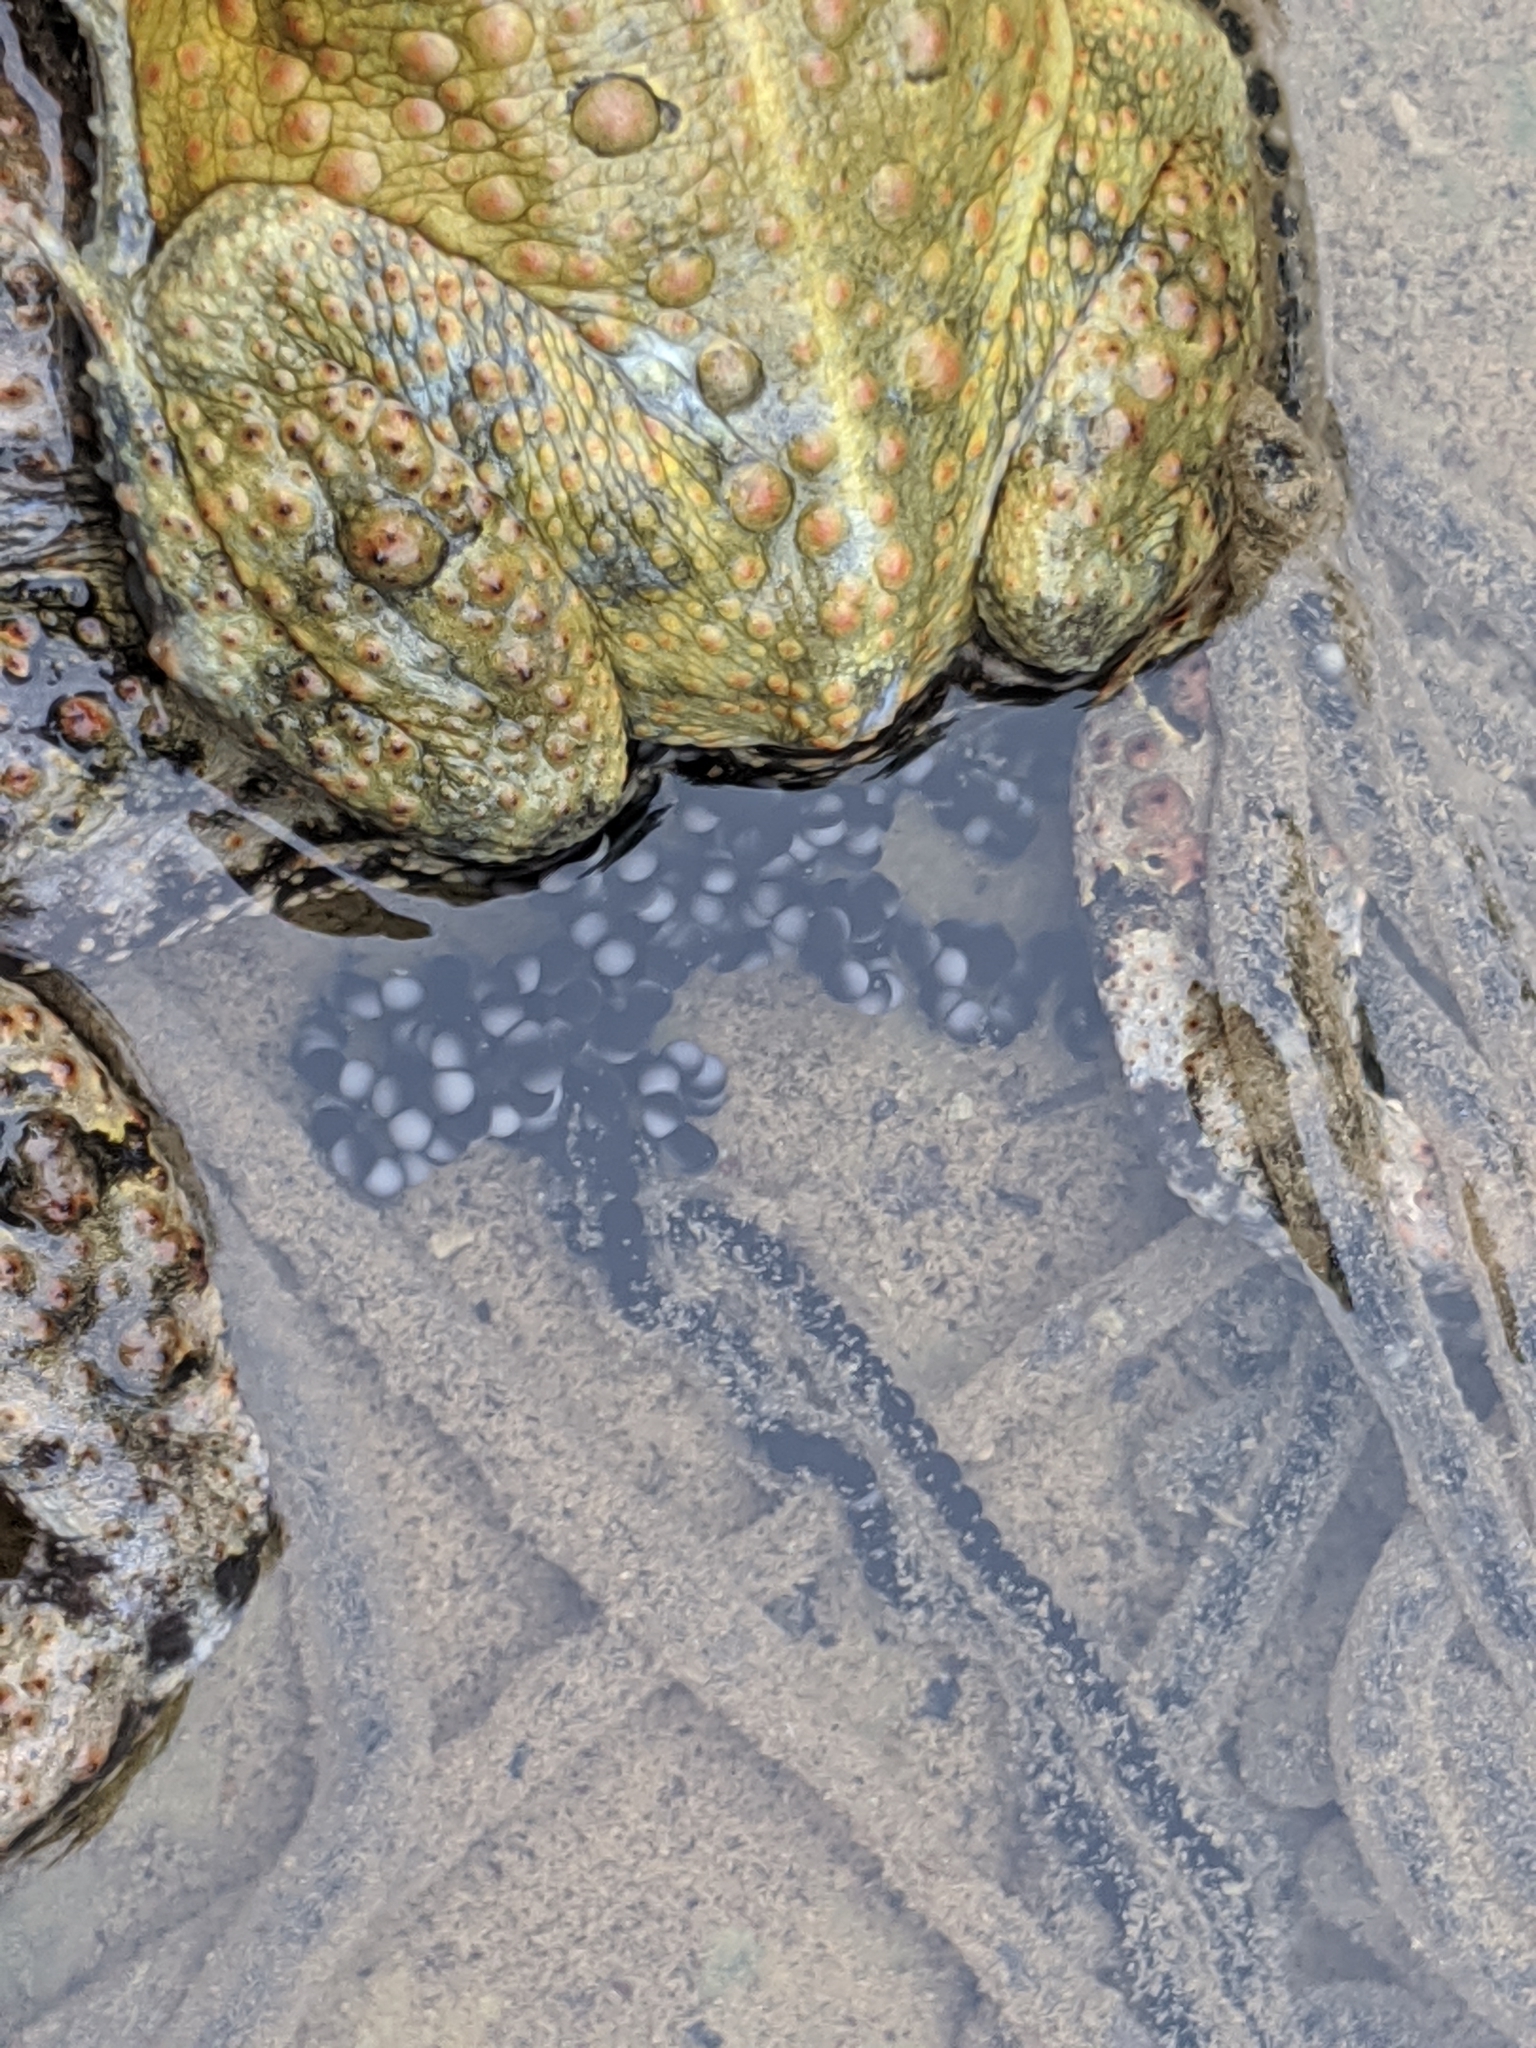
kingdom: Animalia
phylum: Chordata
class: Amphibia
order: Anura
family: Bufonidae
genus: Anaxyrus
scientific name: Anaxyrus americanus
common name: American toad
